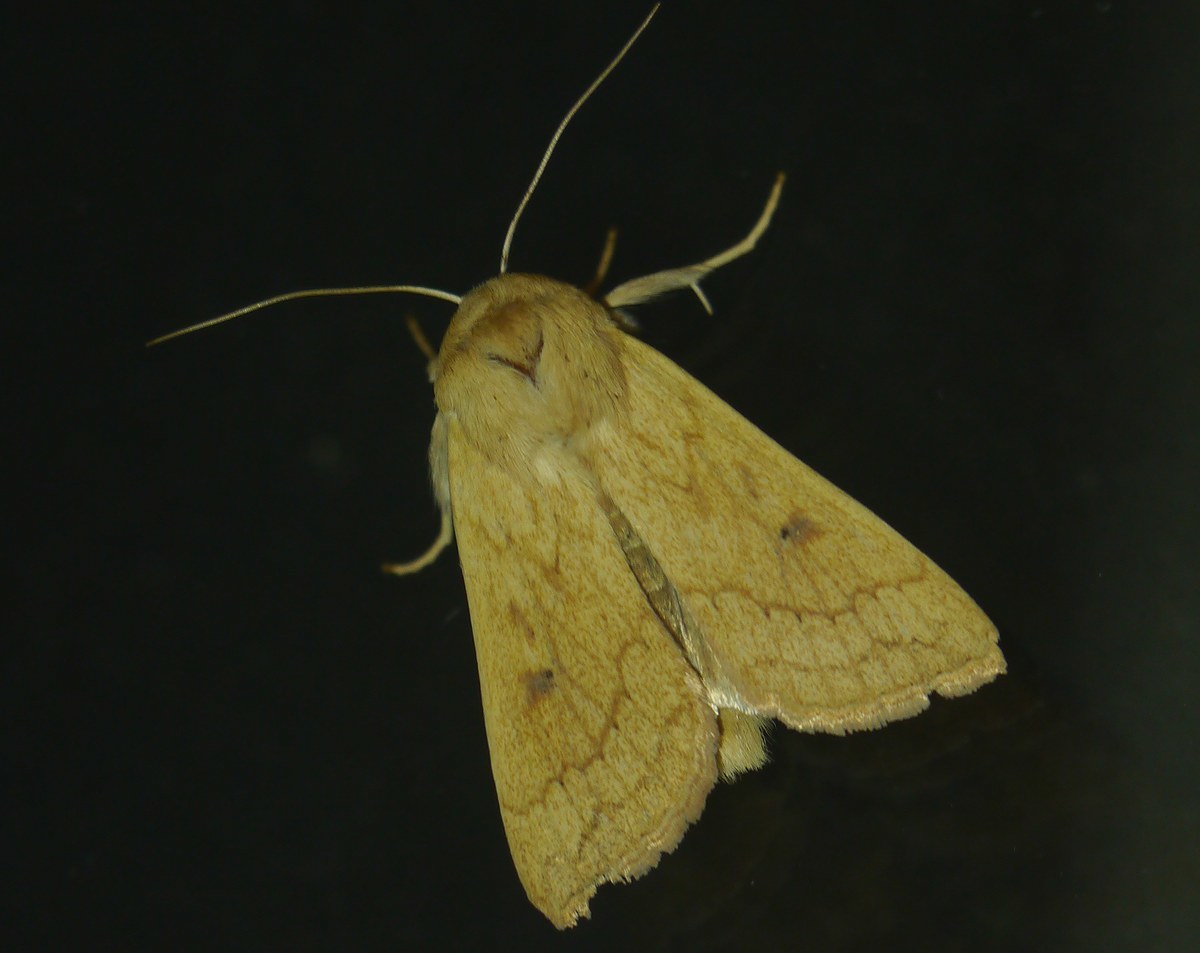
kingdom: Animalia
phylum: Arthropoda
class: Insecta
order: Lepidoptera
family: Noctuidae
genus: Mythimna
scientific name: Mythimna vitellina
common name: Delicate
